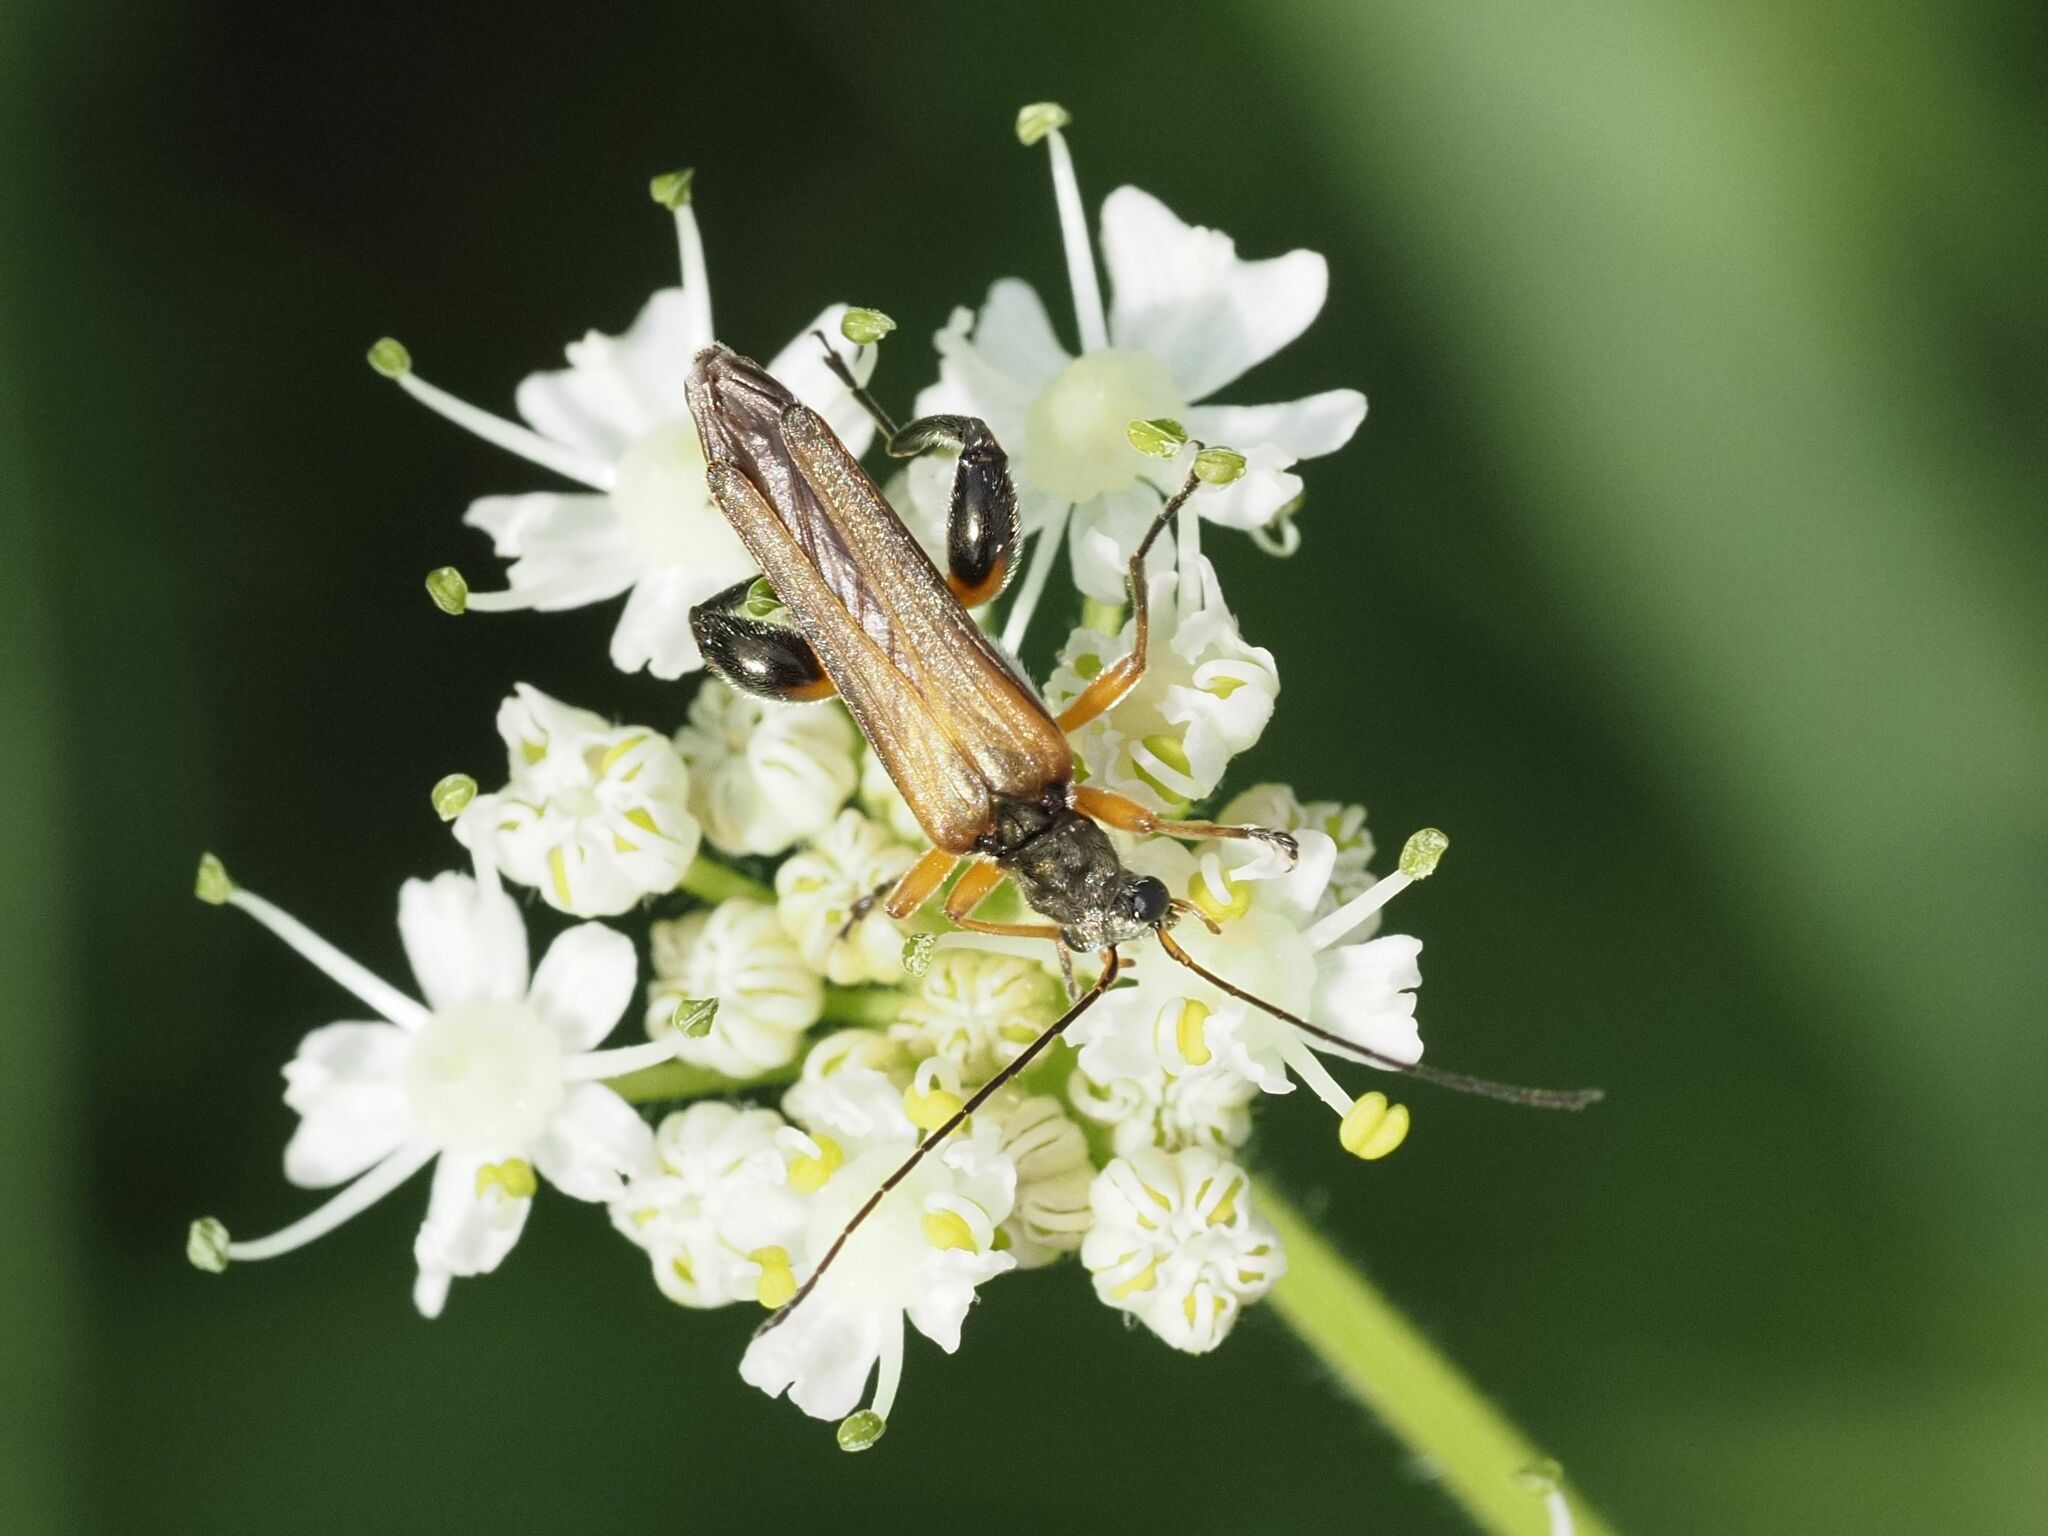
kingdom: Animalia
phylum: Arthropoda
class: Insecta
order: Coleoptera
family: Oedemeridae
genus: Oedemera
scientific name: Oedemera podagrariae
